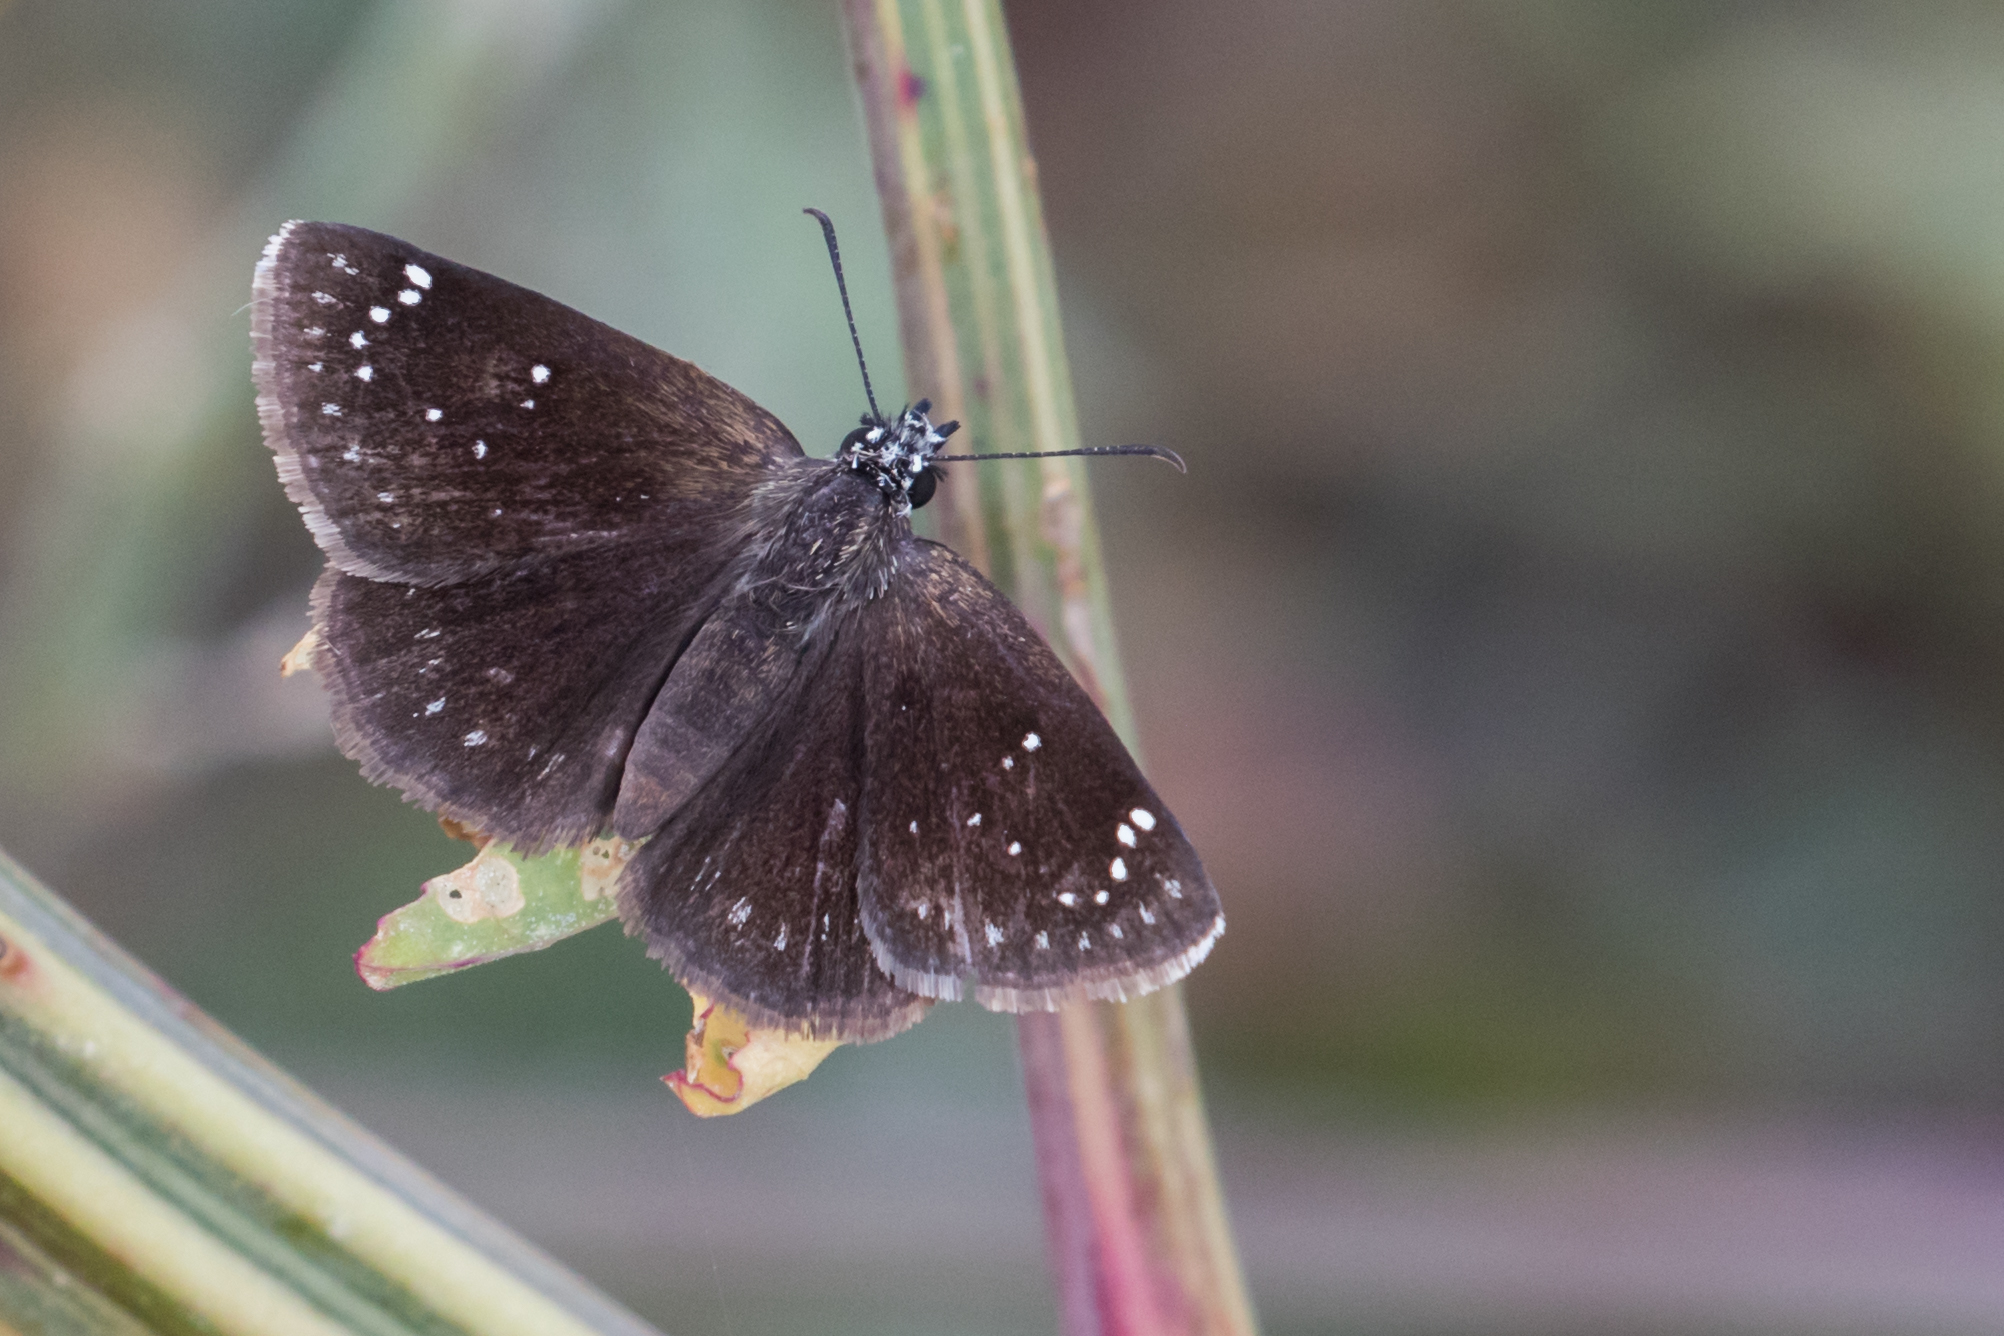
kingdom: Animalia
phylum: Arthropoda
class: Insecta
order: Lepidoptera
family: Hesperiidae
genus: Pholisora
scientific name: Pholisora catullus
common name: Common sootywing
